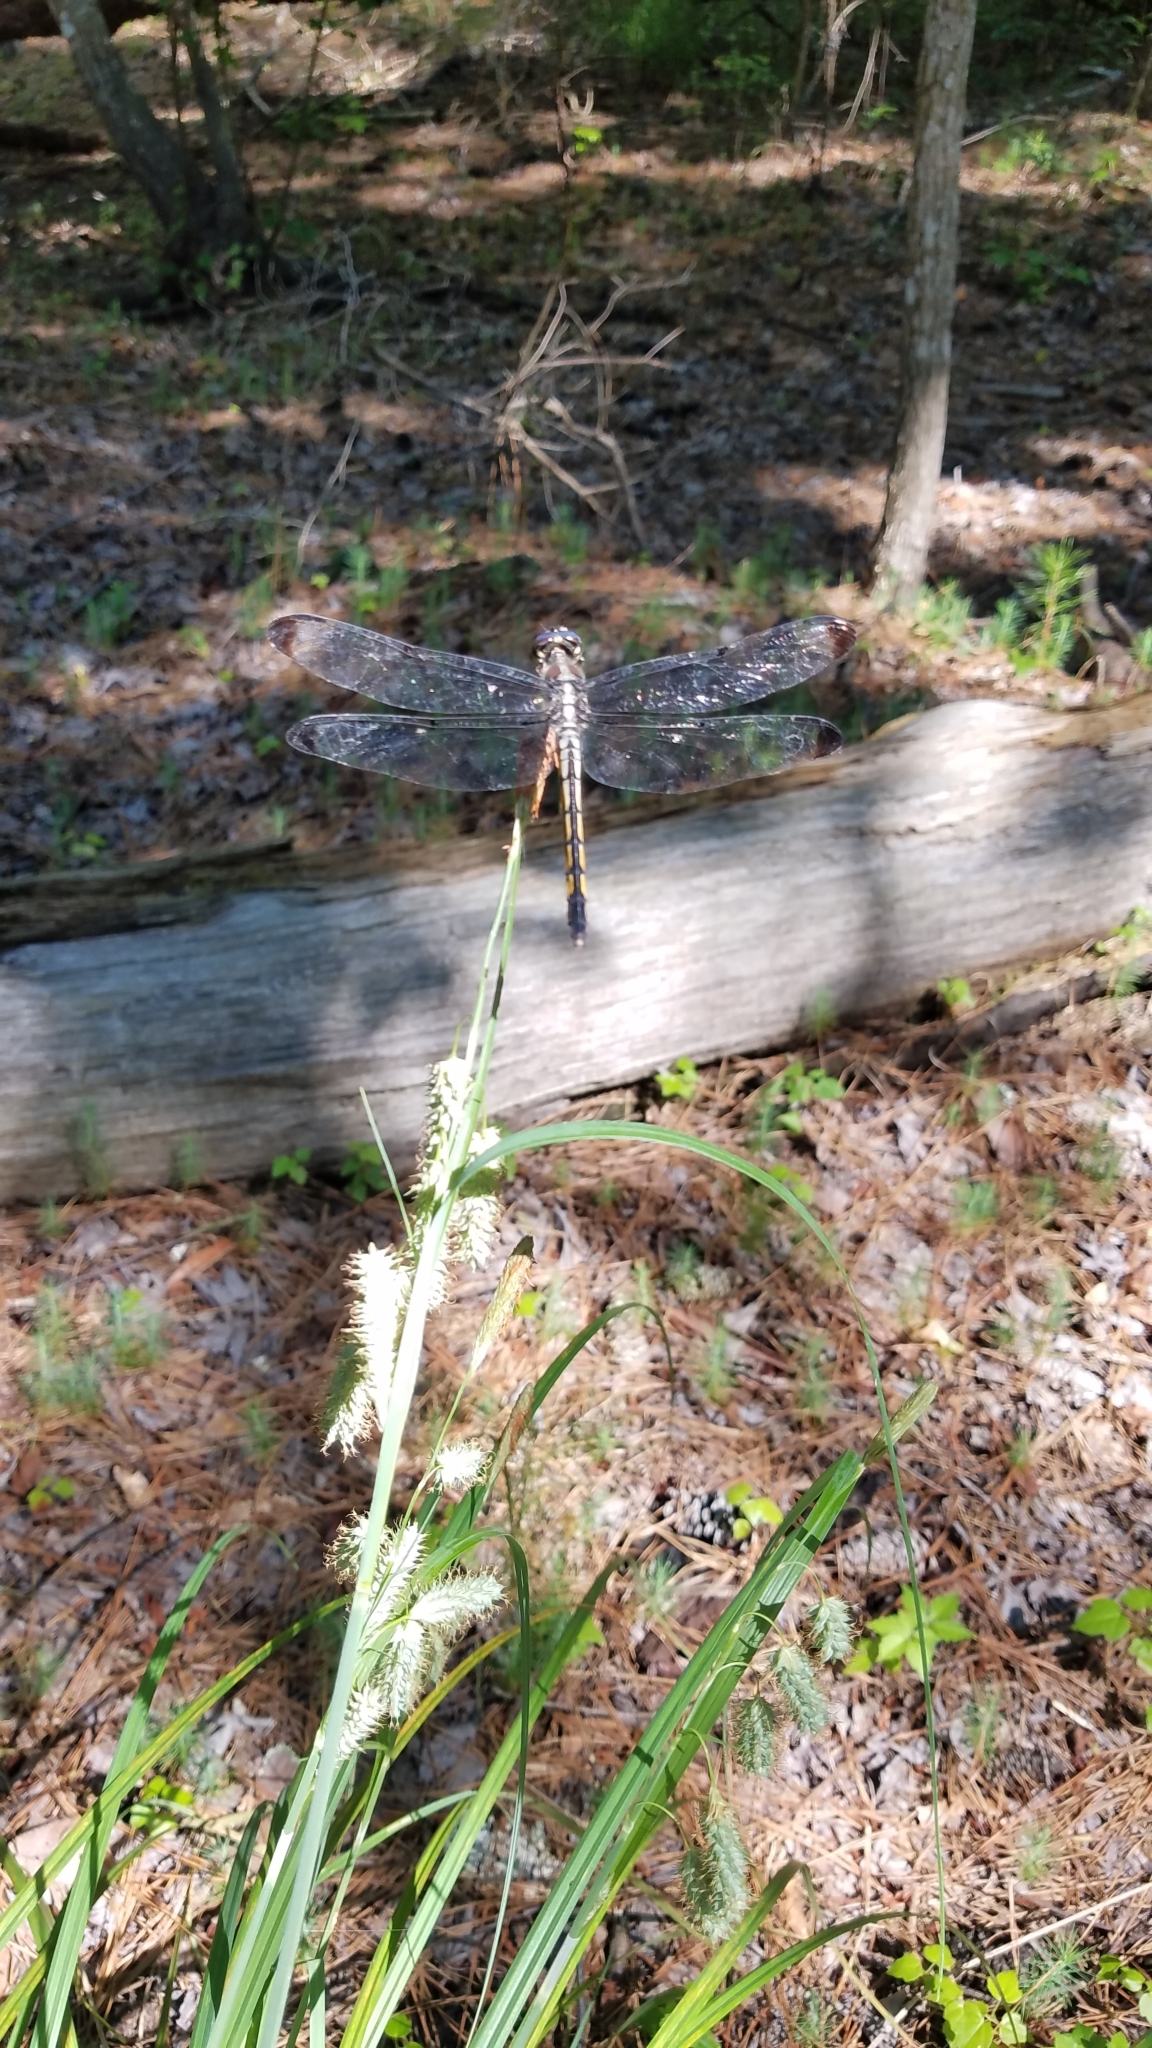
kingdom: Animalia
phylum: Arthropoda
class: Insecta
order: Odonata
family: Libellulidae
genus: Libellula
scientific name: Libellula vibrans
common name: Great blue skimmer
